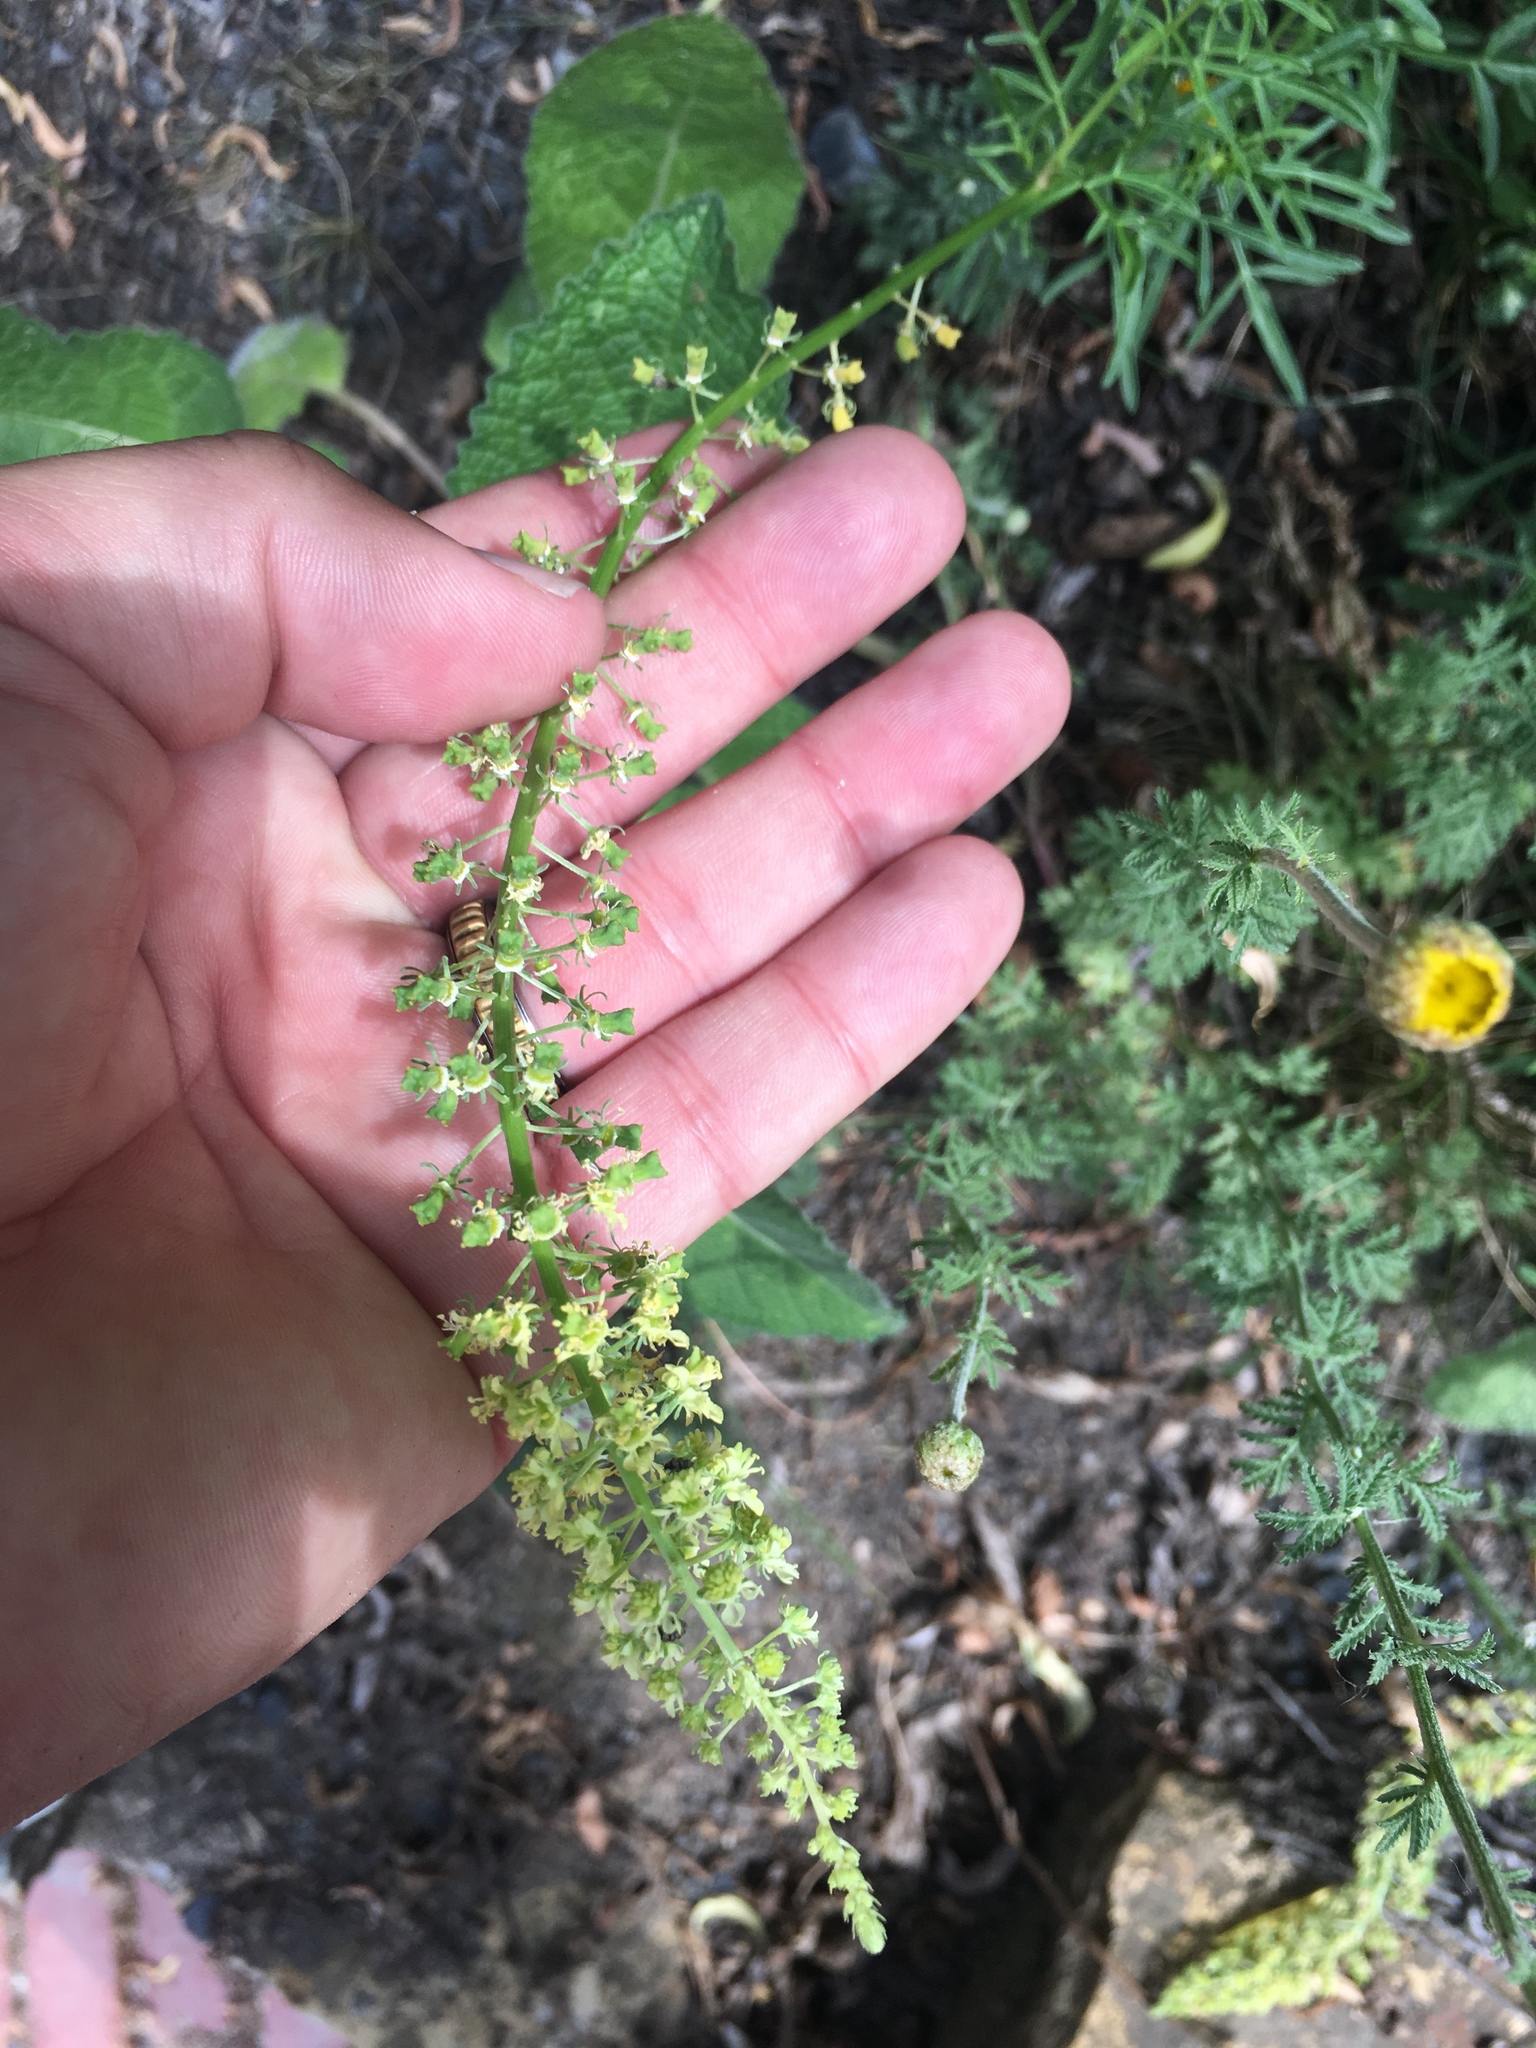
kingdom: Plantae
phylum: Tracheophyta
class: Magnoliopsida
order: Brassicales
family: Resedaceae
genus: Reseda
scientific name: Reseda lutea
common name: Wild mignonette
